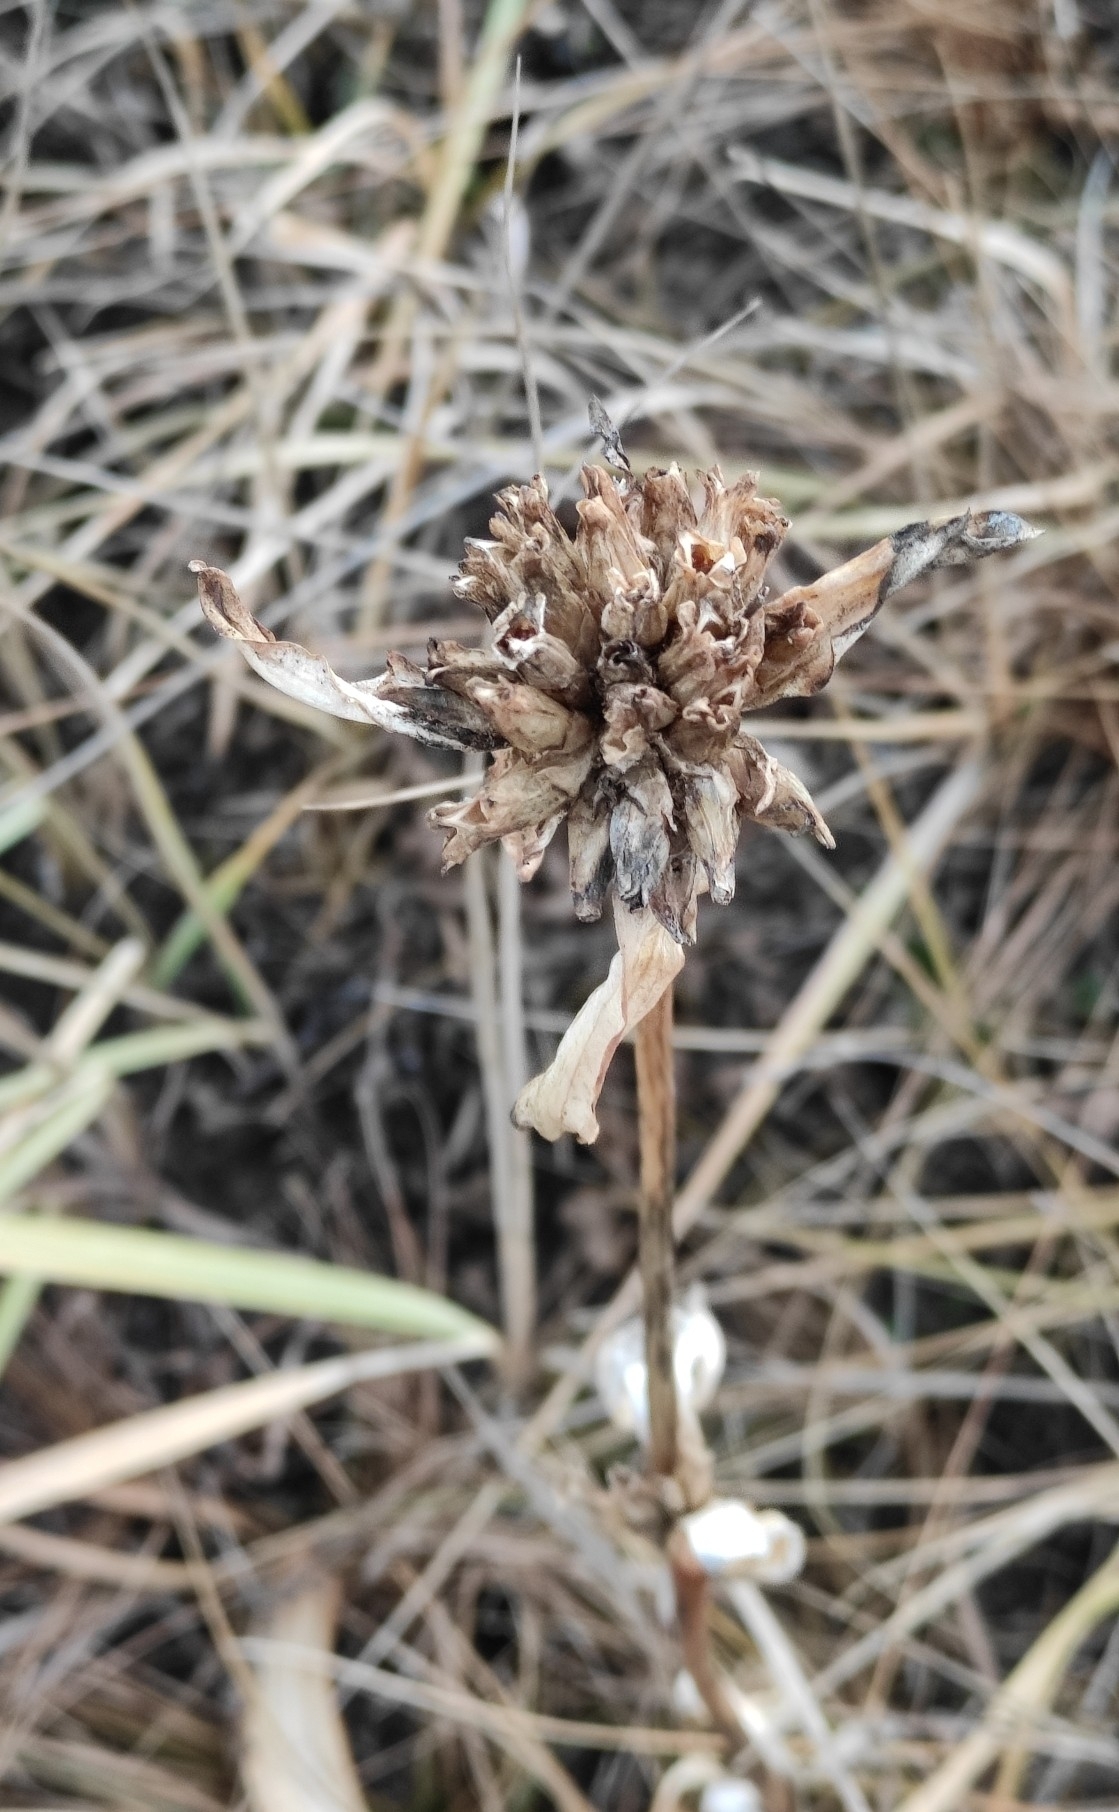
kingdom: Plantae
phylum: Tracheophyta
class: Magnoliopsida
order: Gentianales
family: Gentianaceae
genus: Gentiana
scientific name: Gentiana macrophylla
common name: Large-leaf gentian
